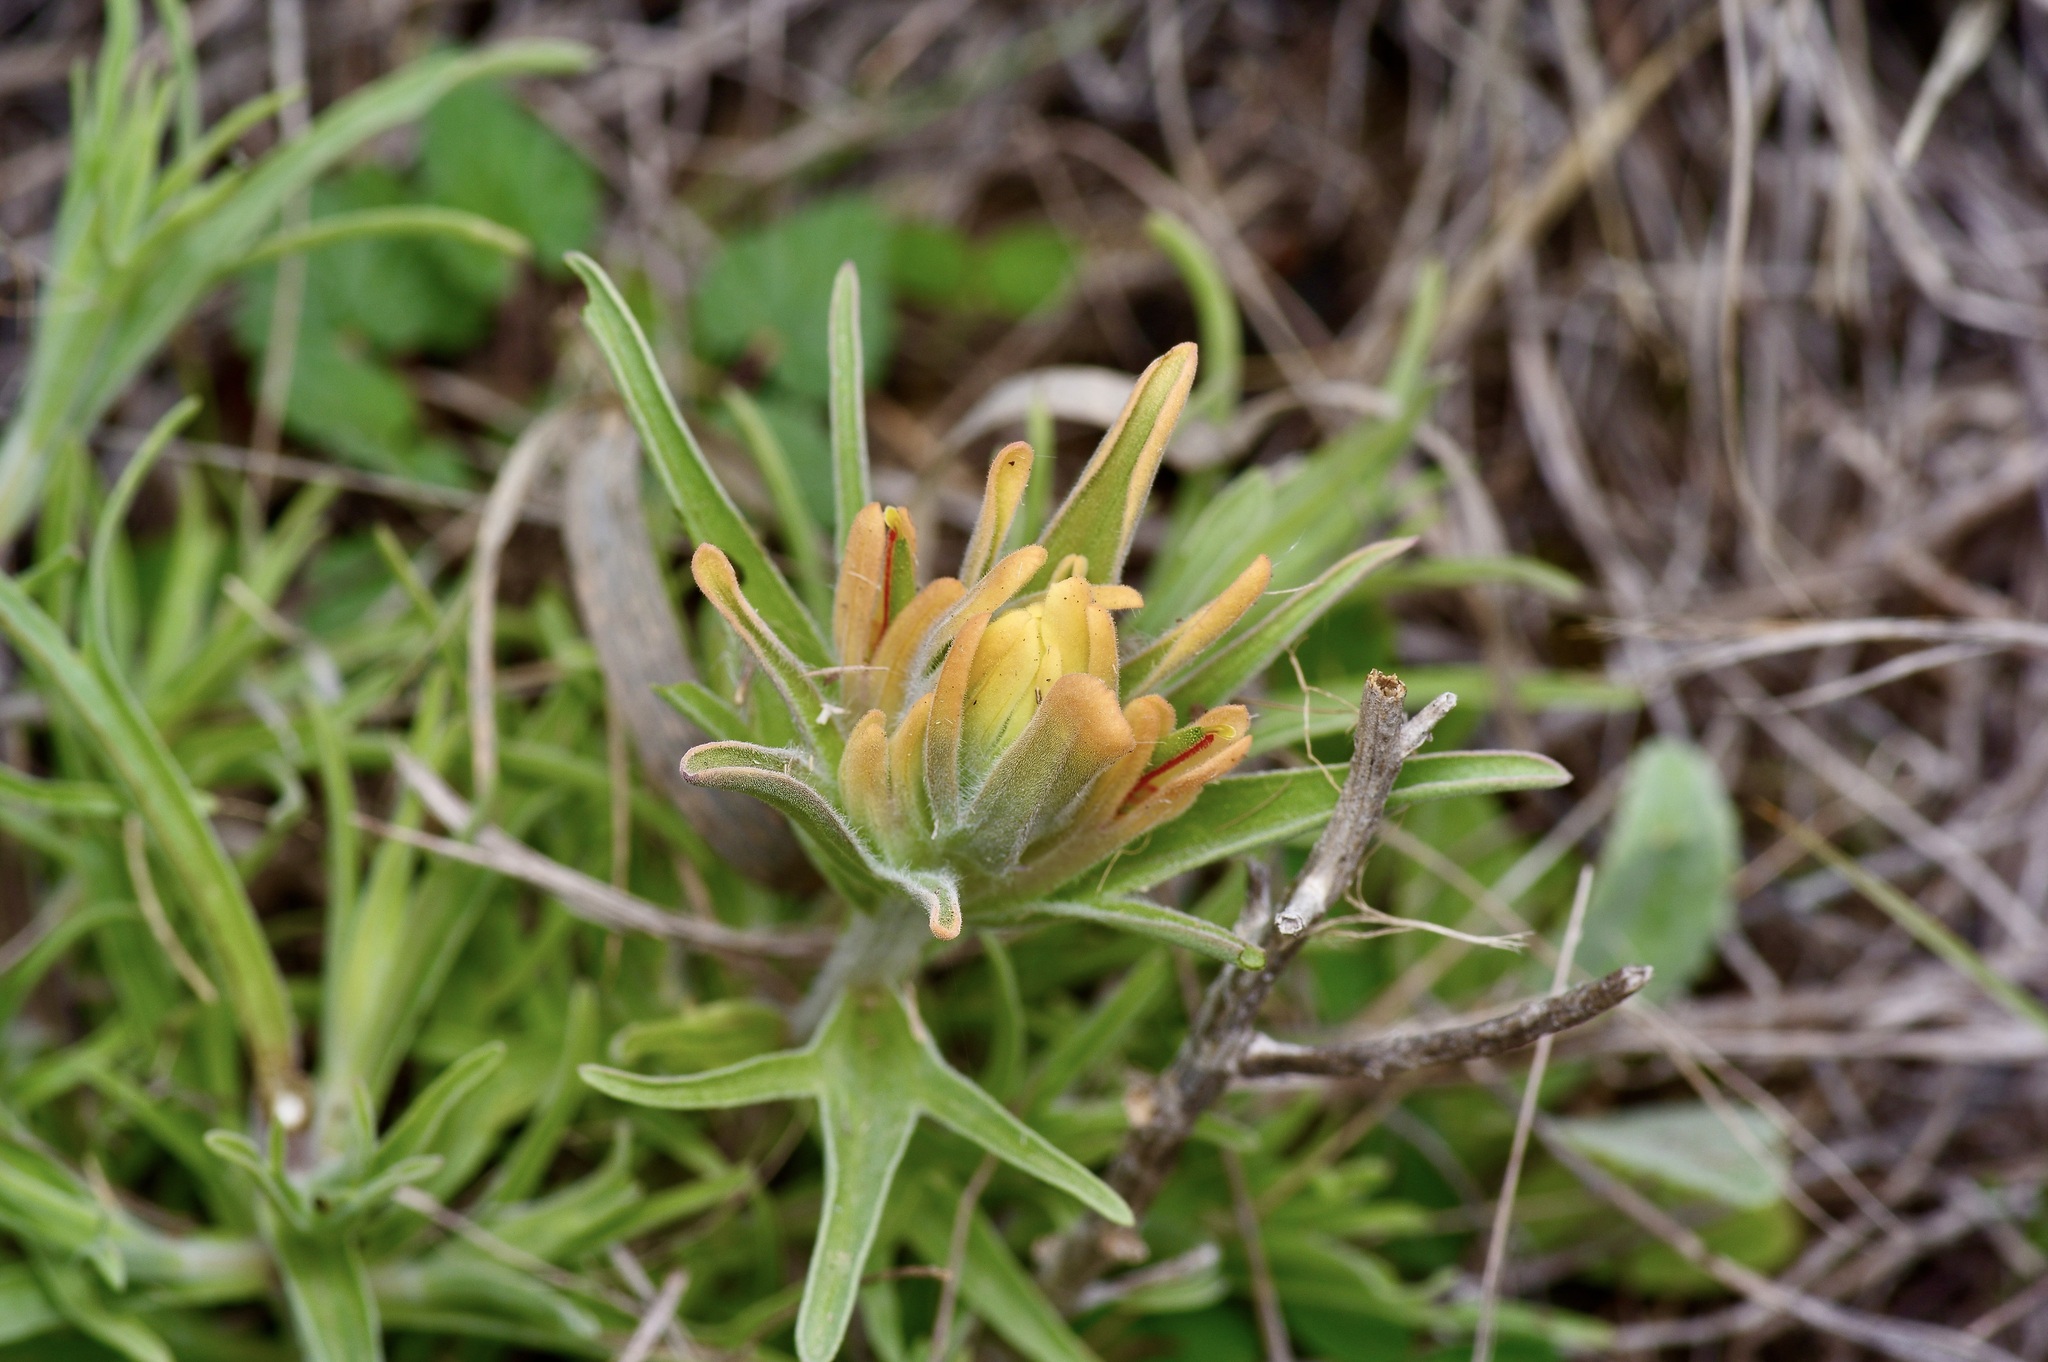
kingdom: Plantae
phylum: Tracheophyta
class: Magnoliopsida
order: Lamiales
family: Orobanchaceae
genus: Castilleja
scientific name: Castilleja lindheimeri
